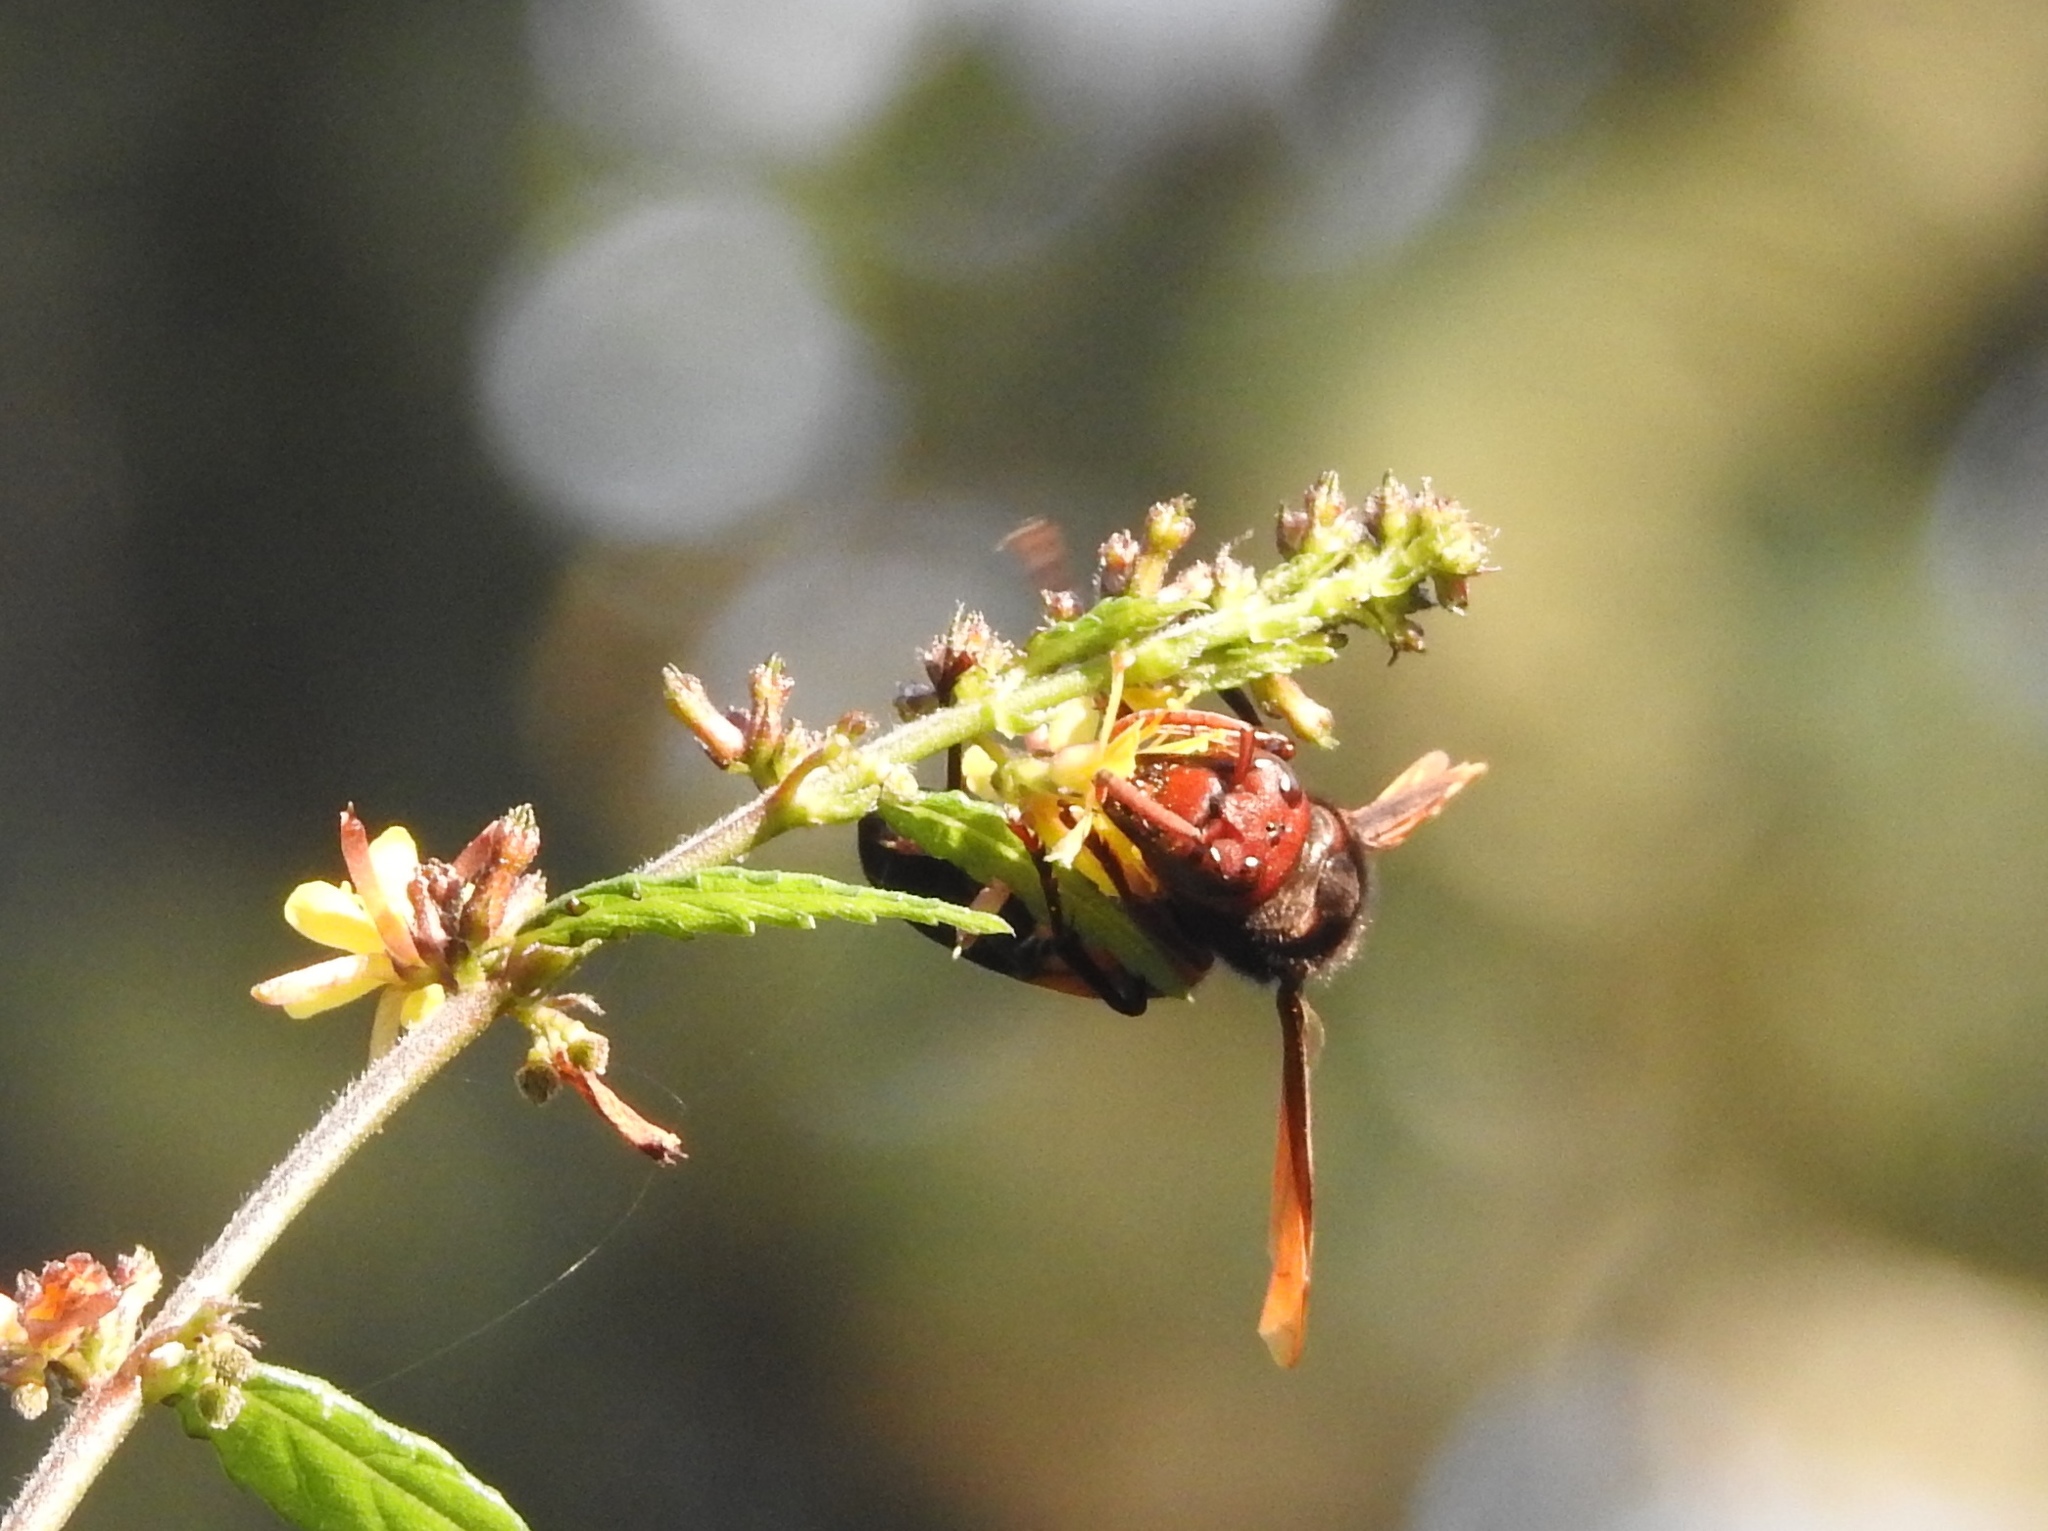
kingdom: Animalia
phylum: Arthropoda
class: Insecta
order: Hymenoptera
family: Vespidae
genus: Vespa
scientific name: Vespa affinis
